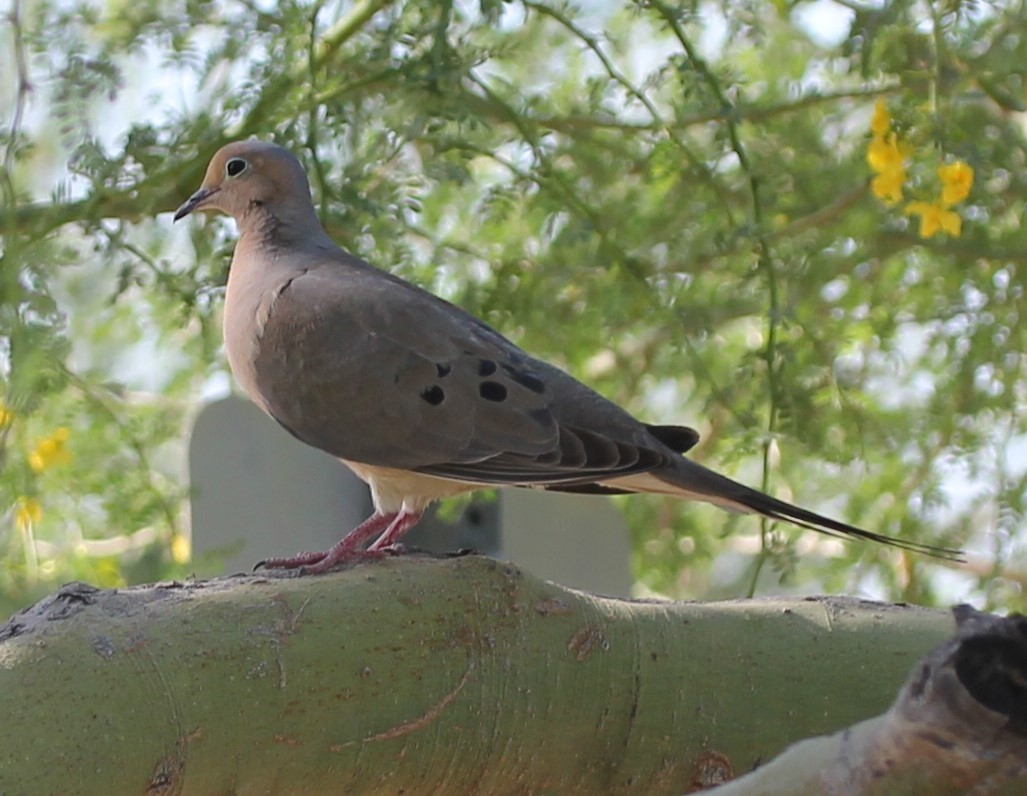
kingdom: Animalia
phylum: Chordata
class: Aves
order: Columbiformes
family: Columbidae
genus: Zenaida
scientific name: Zenaida macroura
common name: Mourning dove
